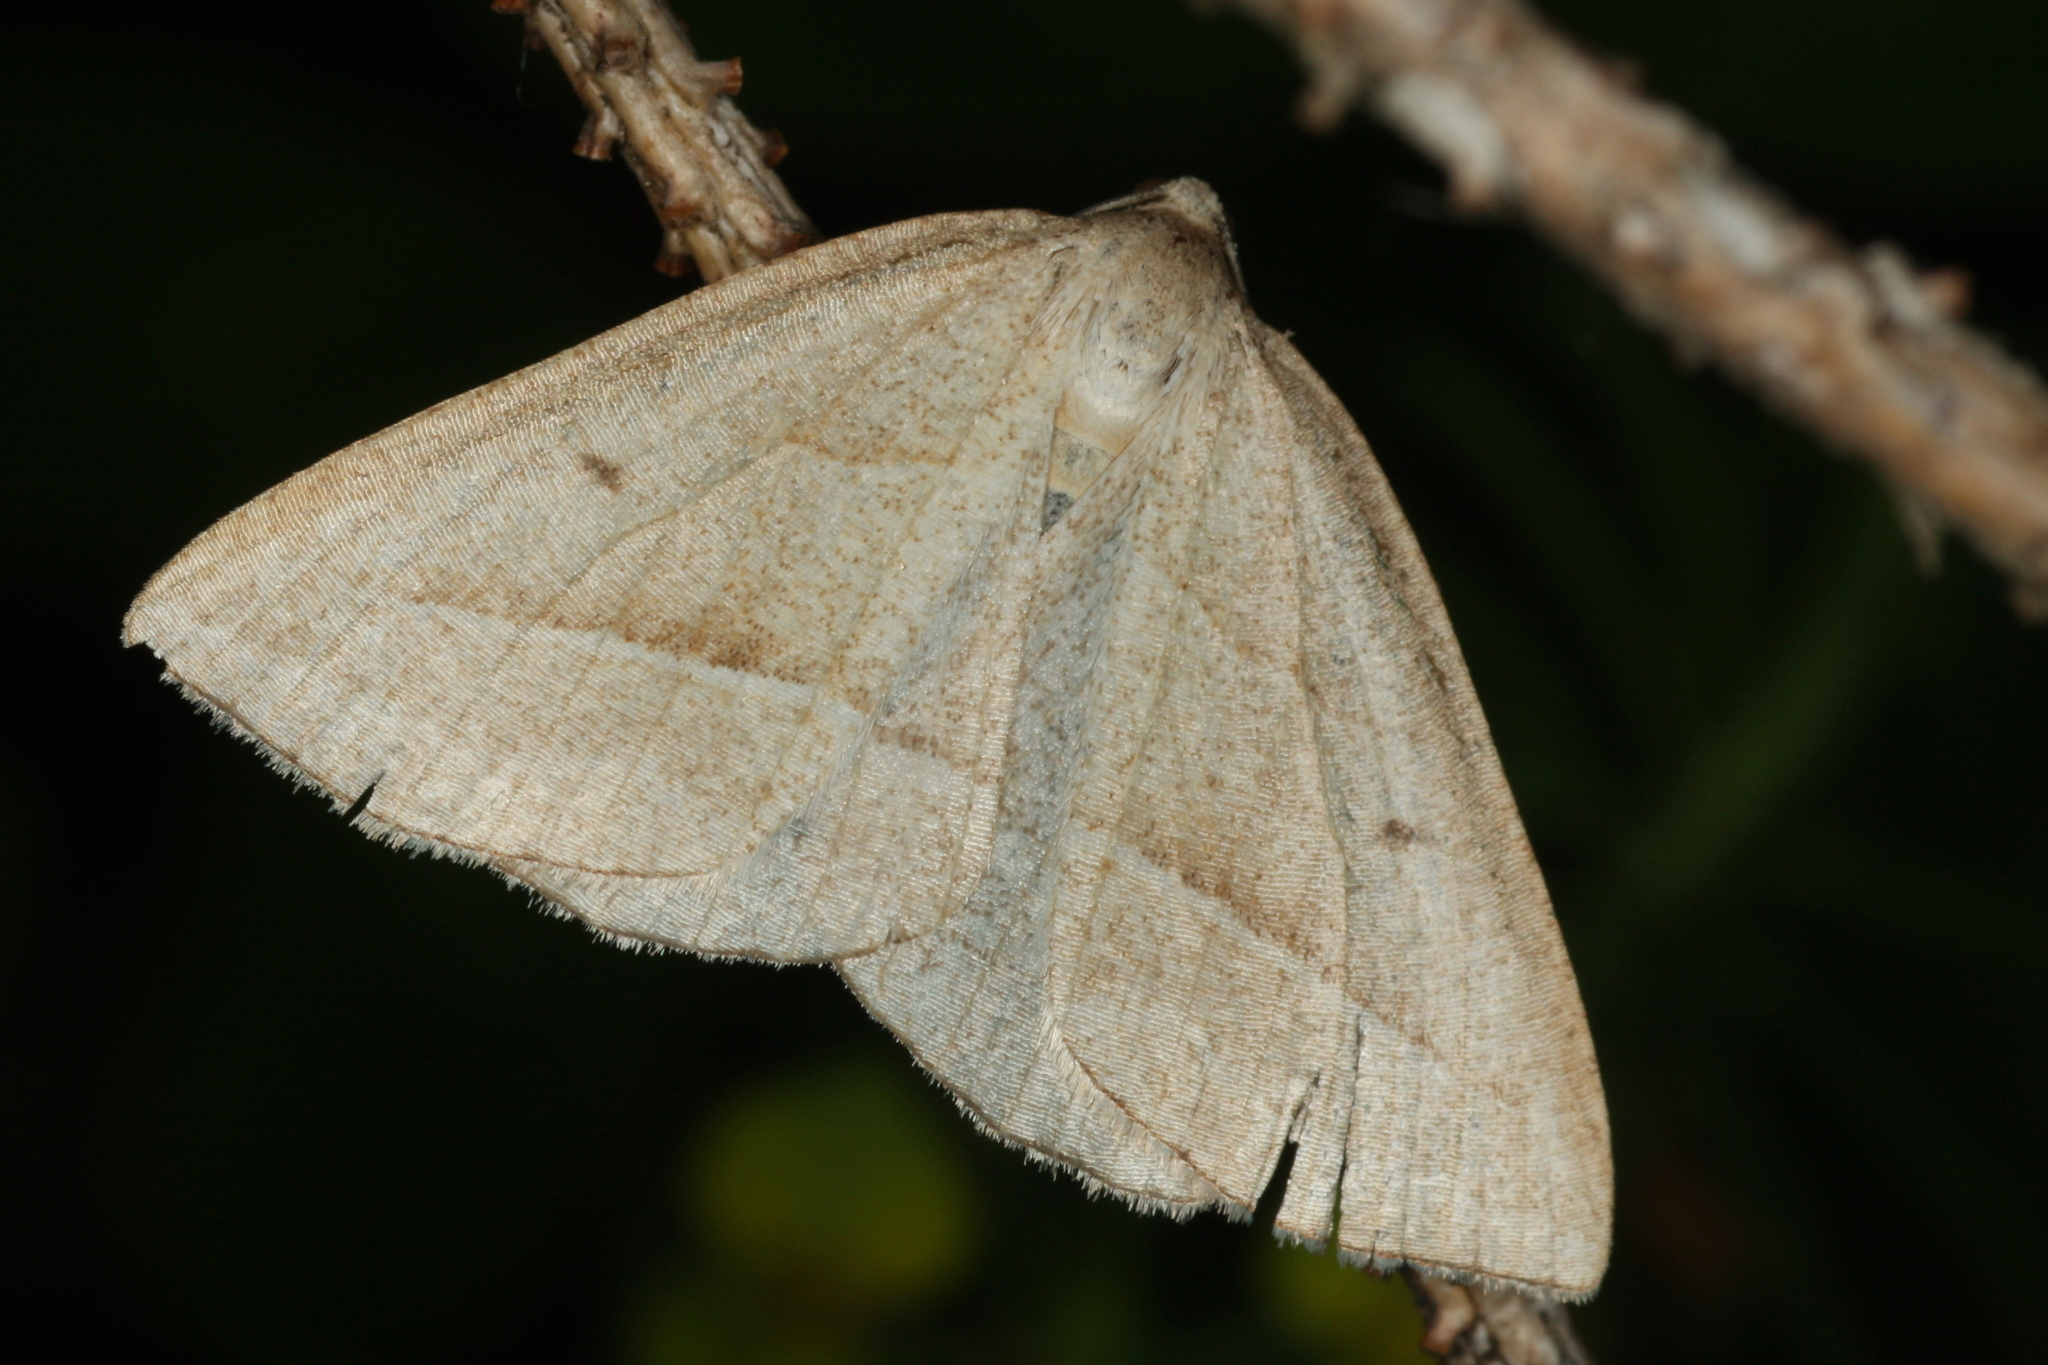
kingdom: Animalia
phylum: Arthropoda
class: Insecta
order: Lepidoptera
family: Pterophoridae
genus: Pterophorus
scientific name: Pterophorus Petrophora chlorosata
